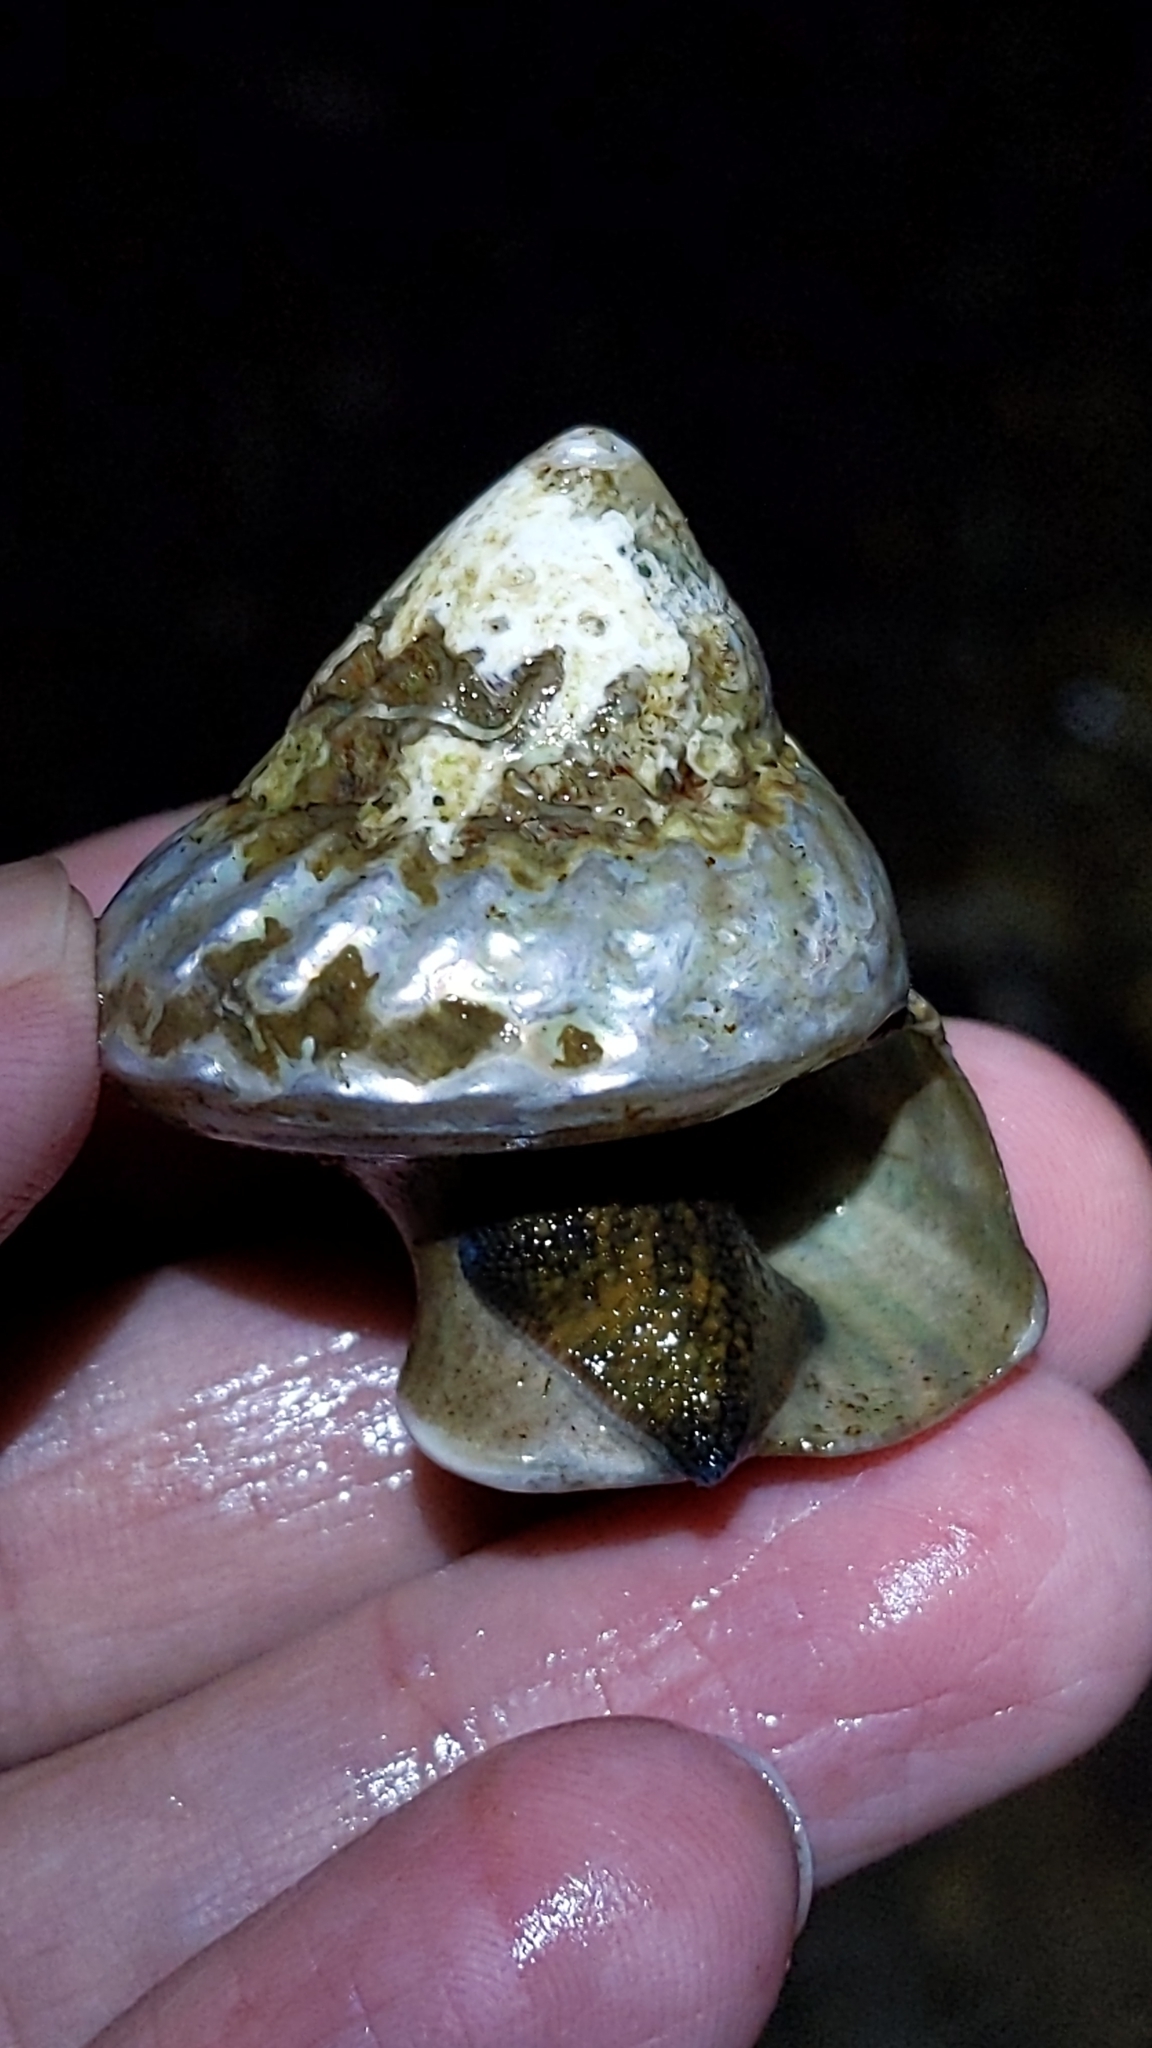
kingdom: Animalia
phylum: Mollusca
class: Gastropoda
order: Trochida
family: Turbinidae
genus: Cookia
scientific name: Cookia sulcata
